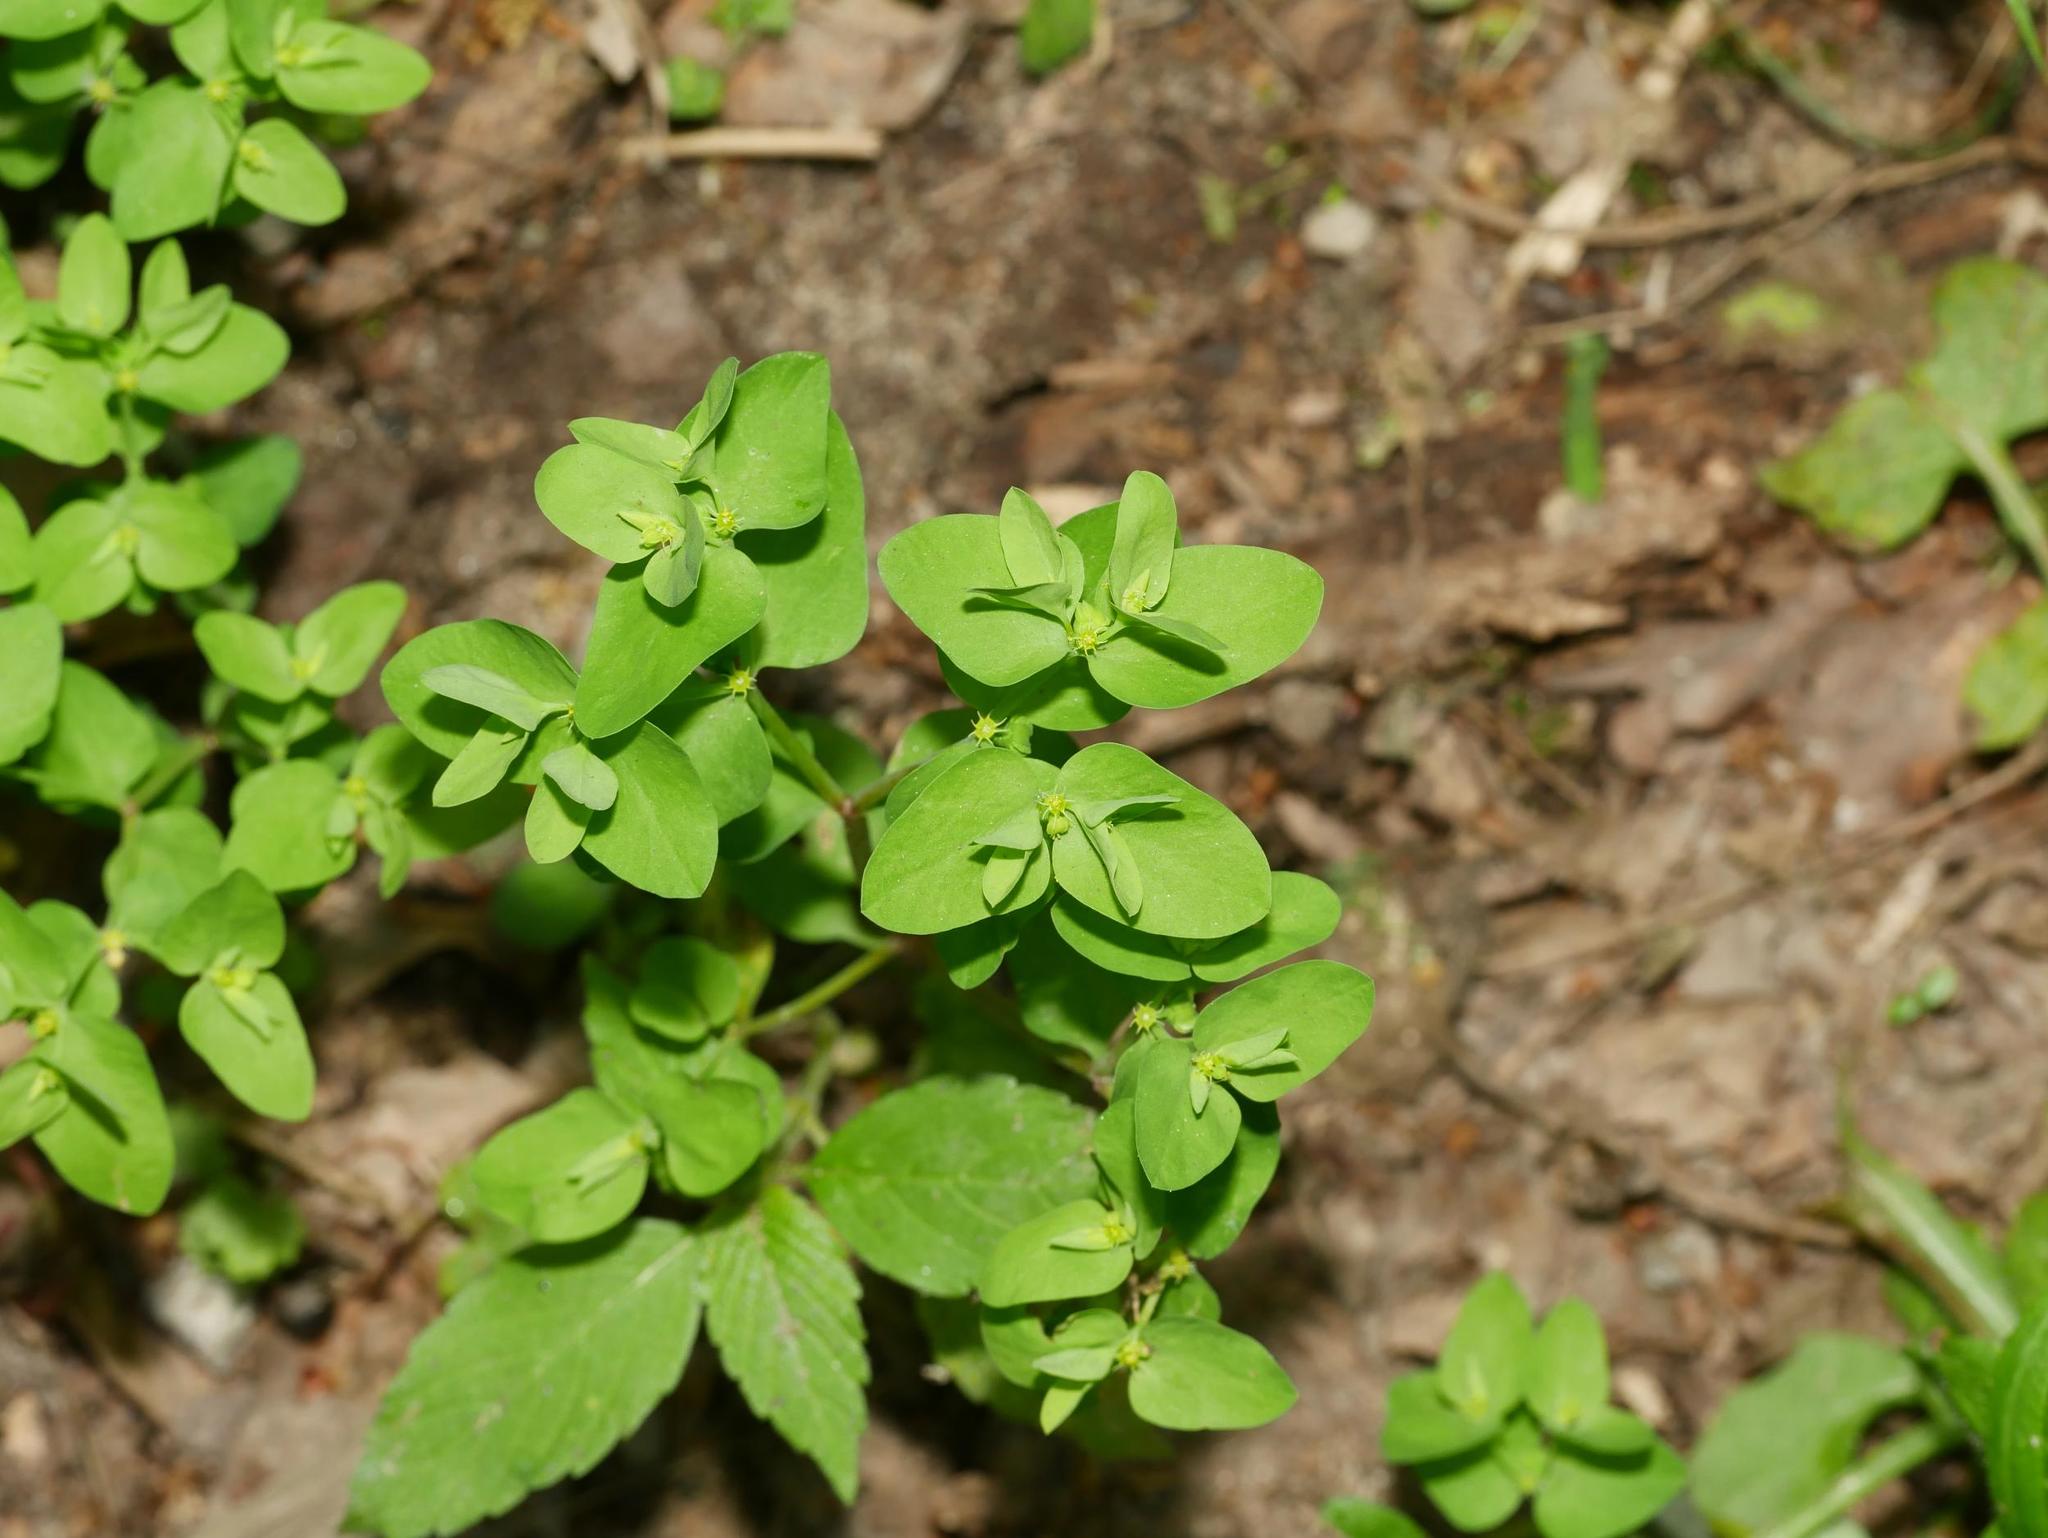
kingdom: Plantae
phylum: Tracheophyta
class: Magnoliopsida
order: Malpighiales
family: Euphorbiaceae
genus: Euphorbia
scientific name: Euphorbia peplus
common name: Petty spurge
